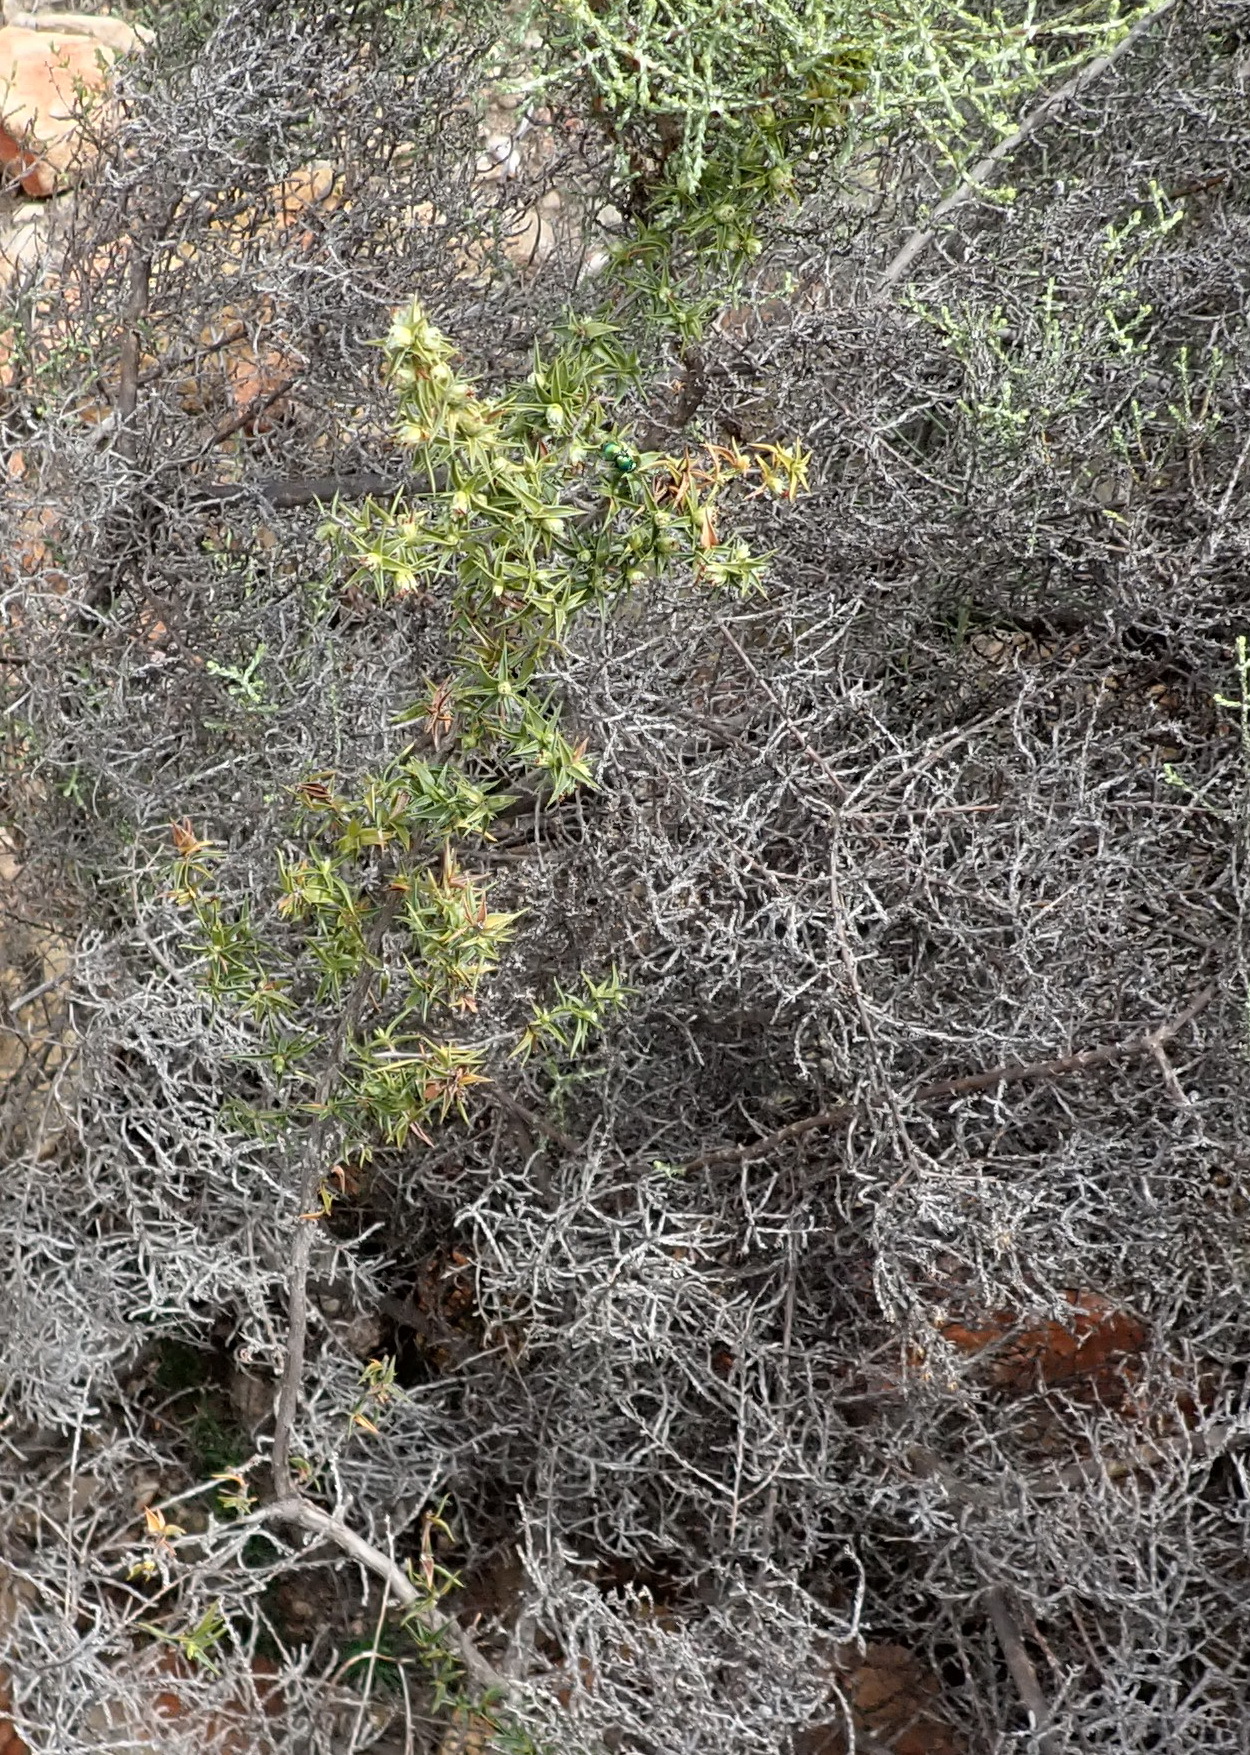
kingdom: Plantae
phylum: Tracheophyta
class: Magnoliopsida
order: Rosales
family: Rosaceae
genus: Cliffortia
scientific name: Cliffortia ruscifolia
